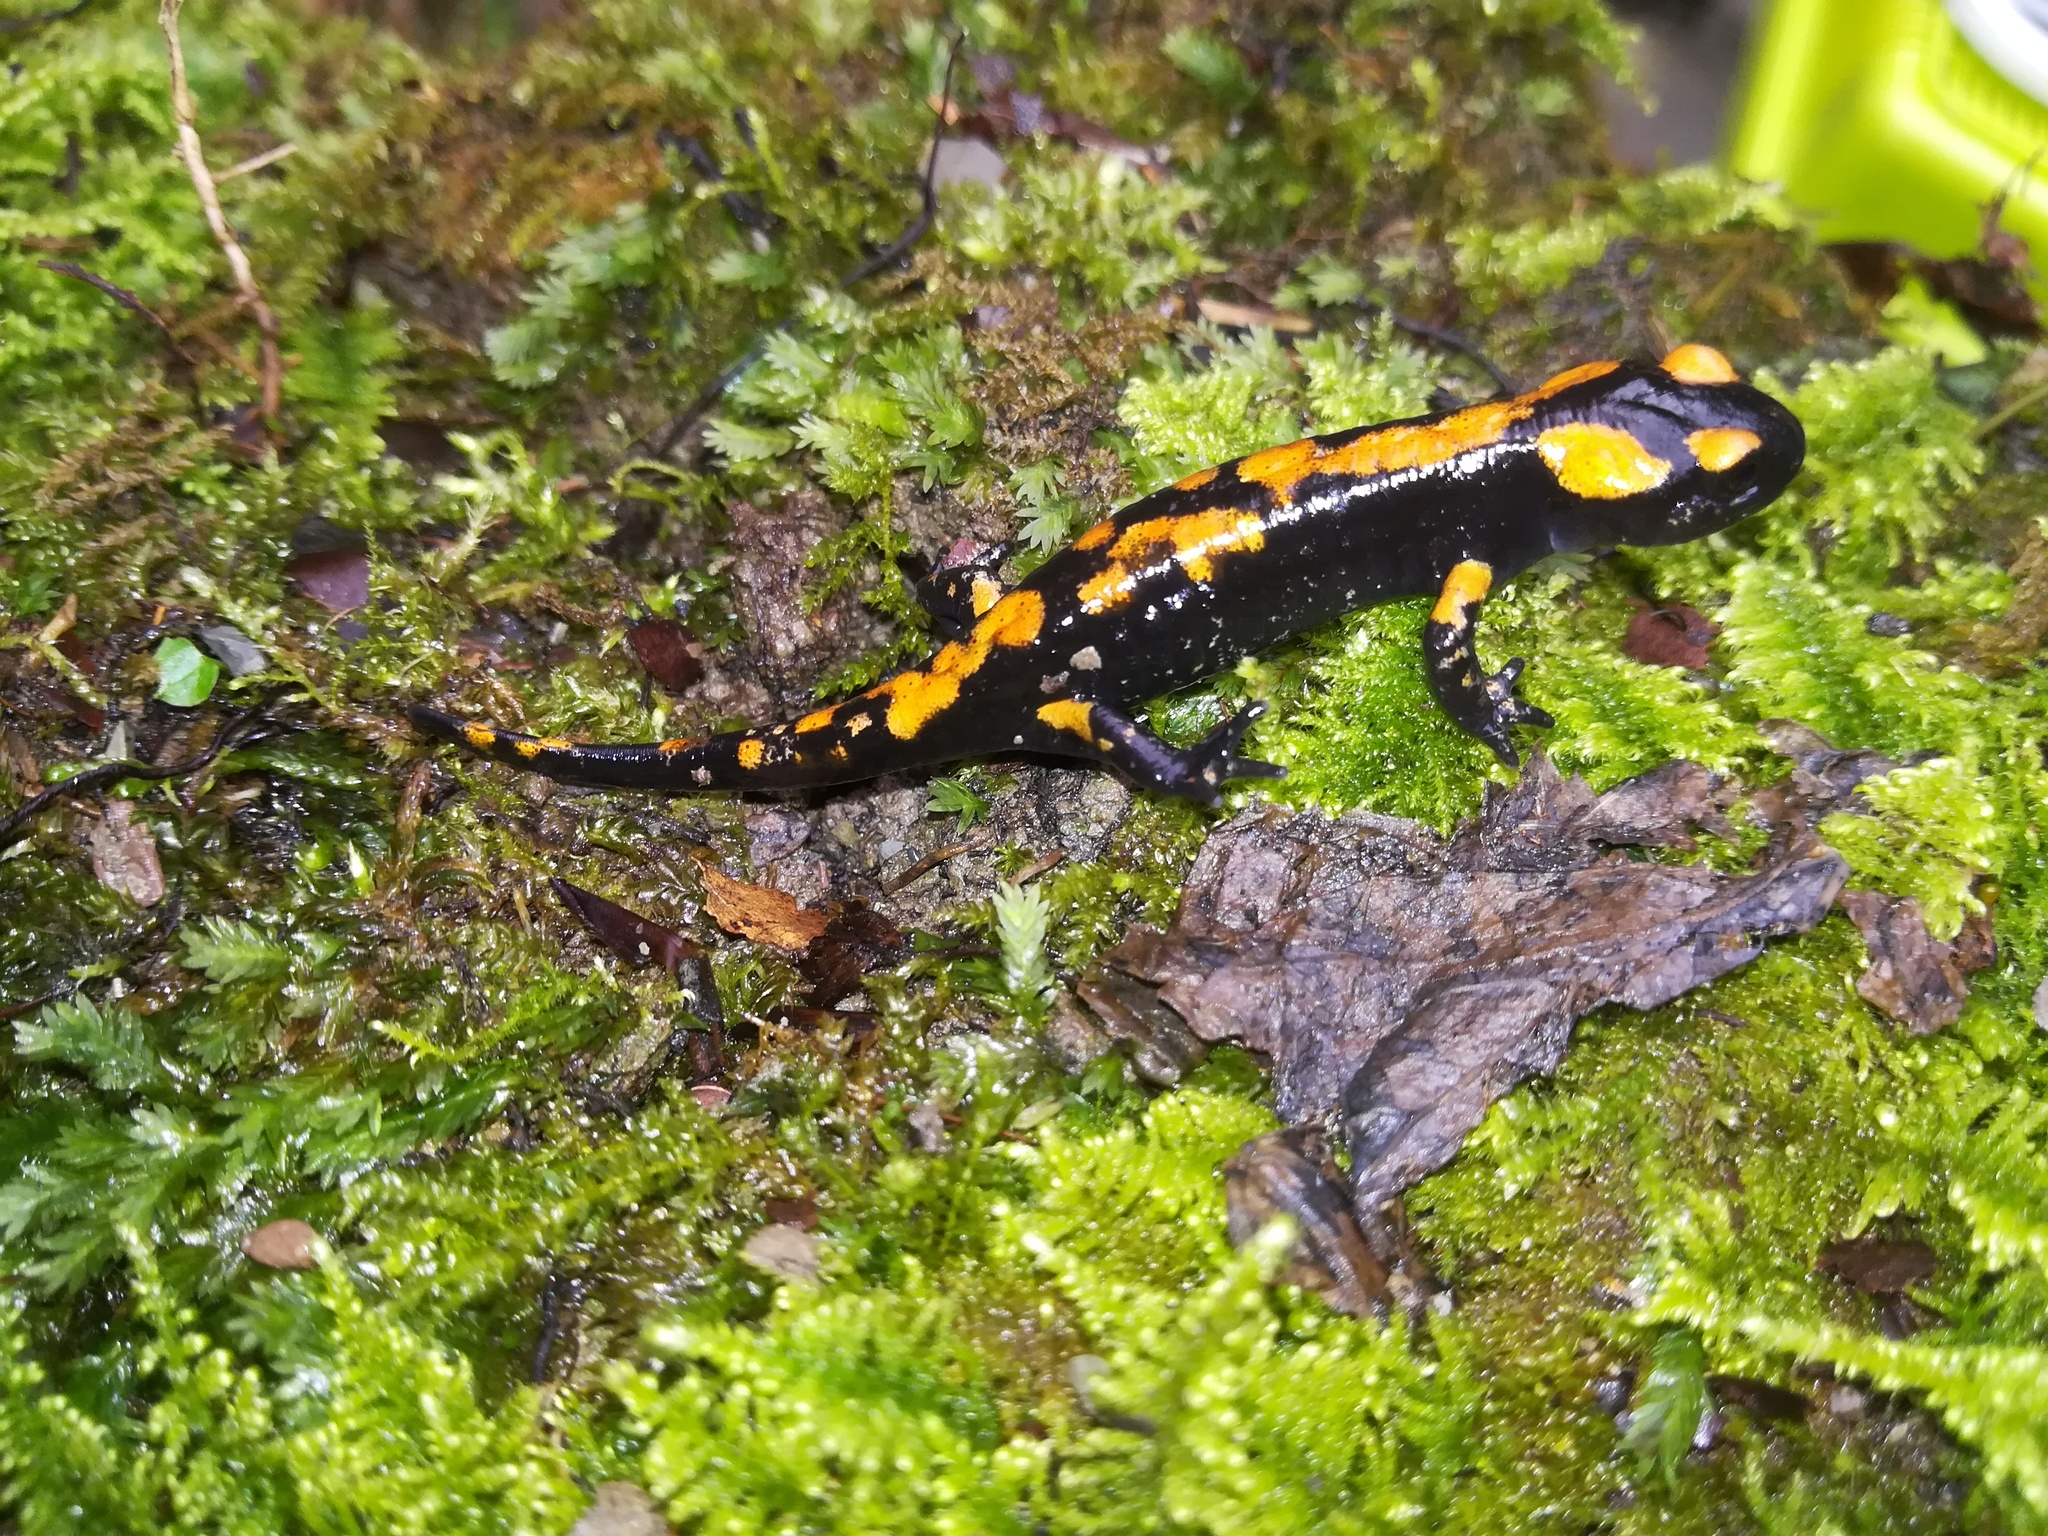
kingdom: Animalia
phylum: Chordata
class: Amphibia
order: Caudata
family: Salamandridae
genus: Salamandra
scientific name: Salamandra salamandra
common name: Fire salamander
